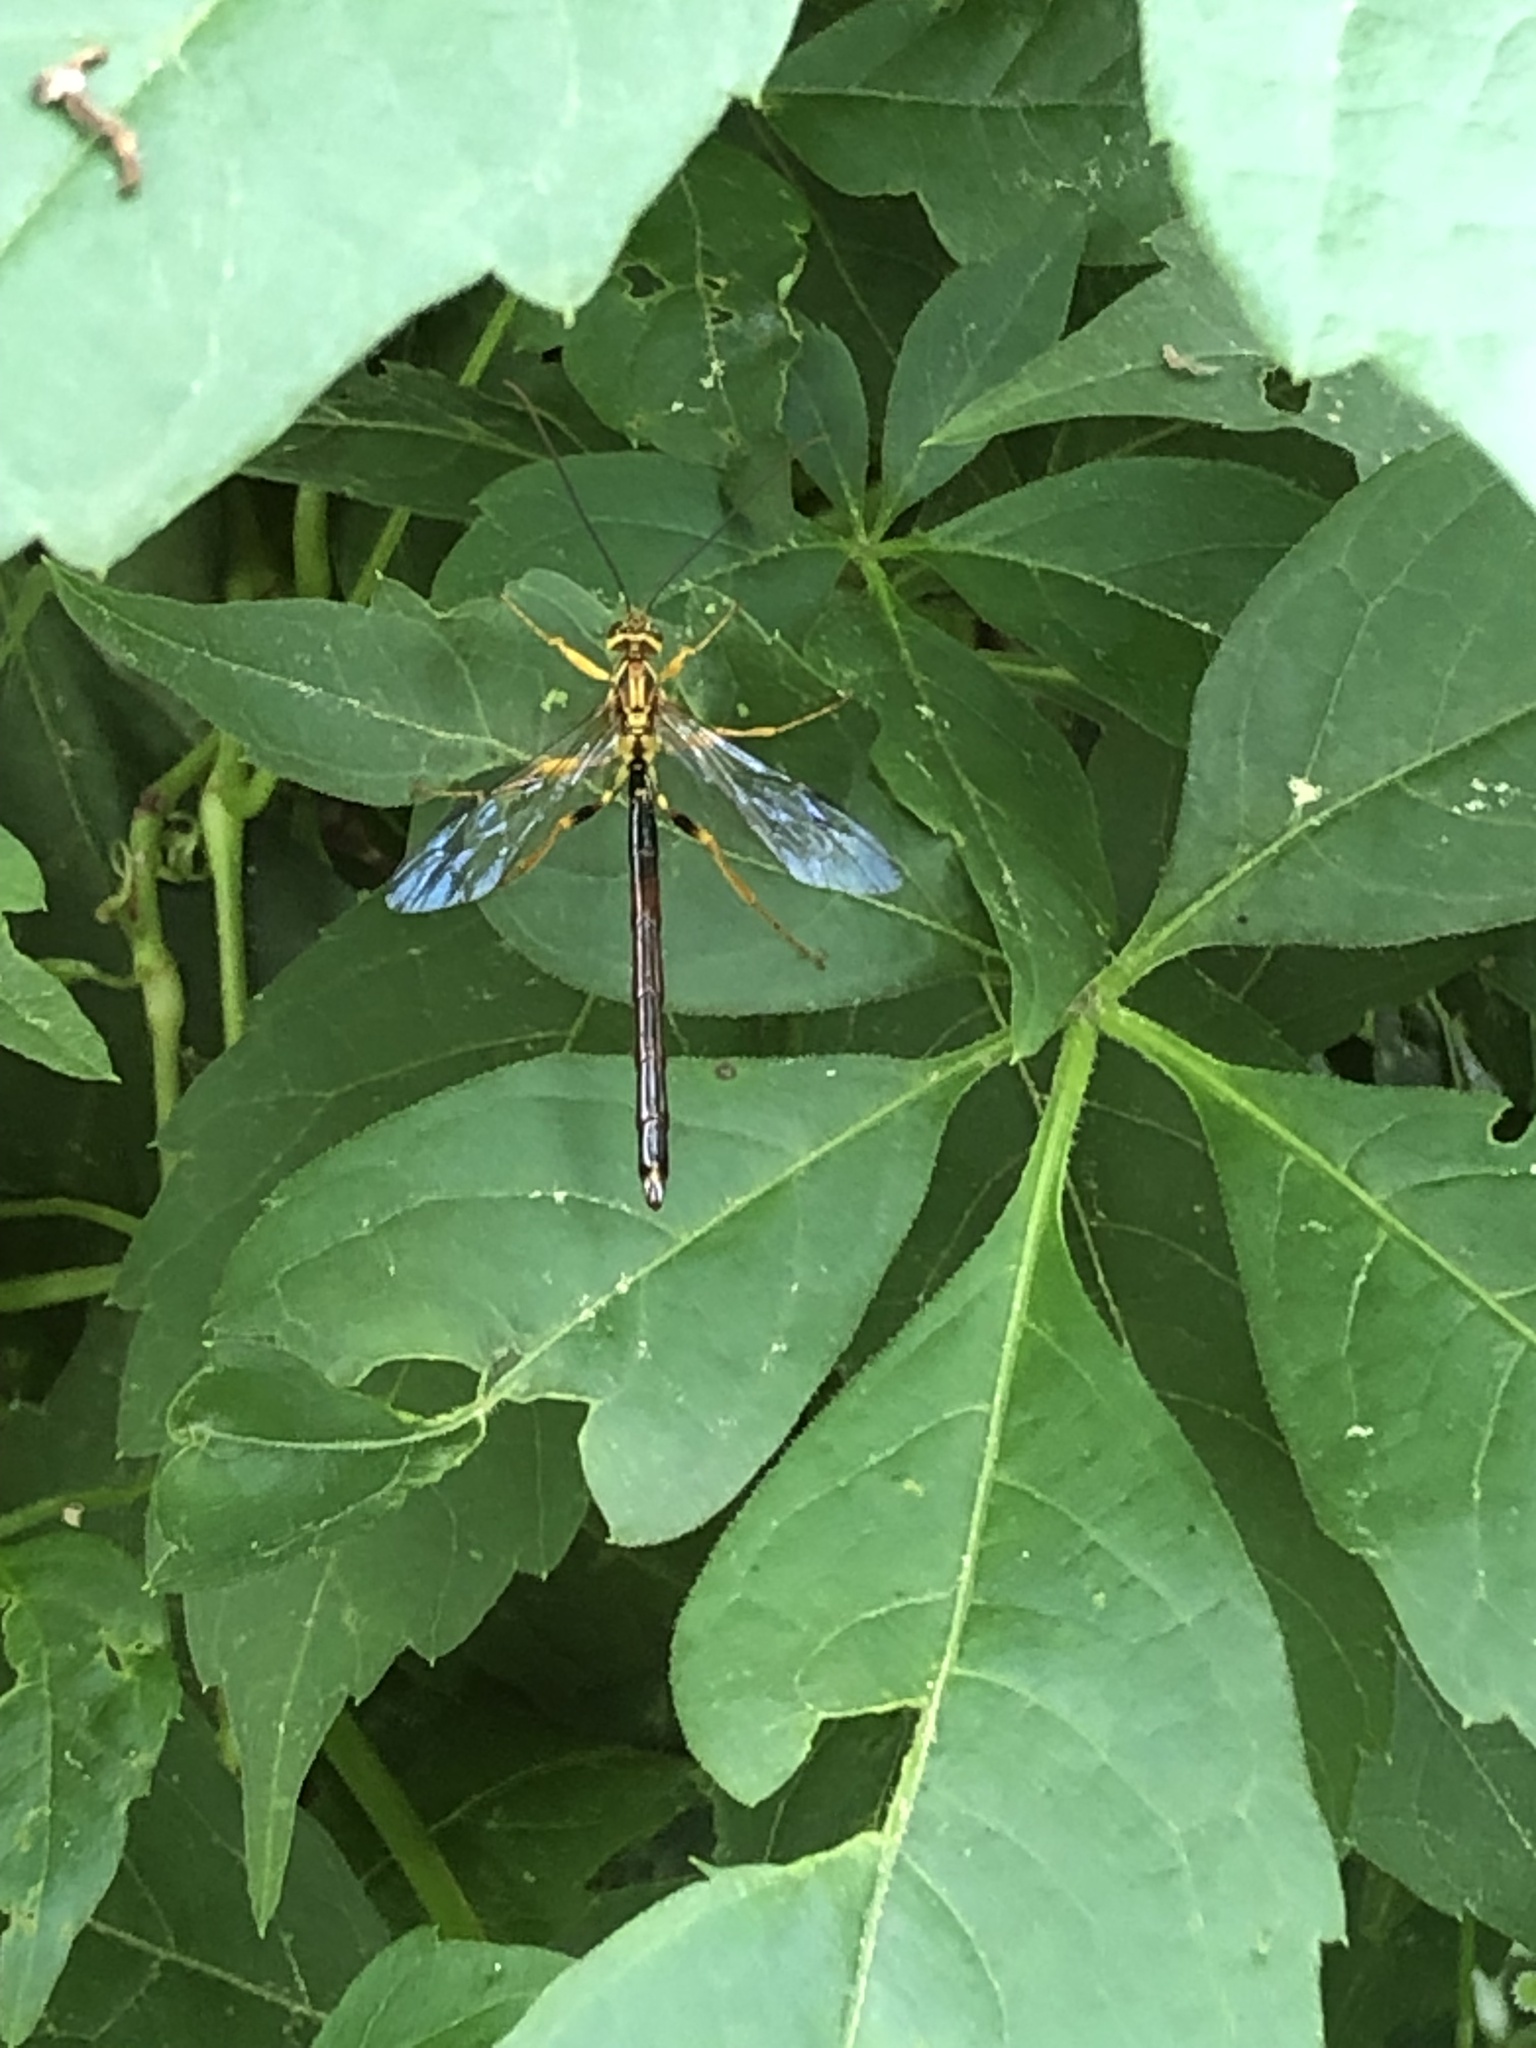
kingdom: Animalia
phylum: Arthropoda
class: Insecta
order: Hymenoptera
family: Ichneumonidae
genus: Megarhyssa
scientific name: Megarhyssa atrata
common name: Black giant ichneumonid wasp
